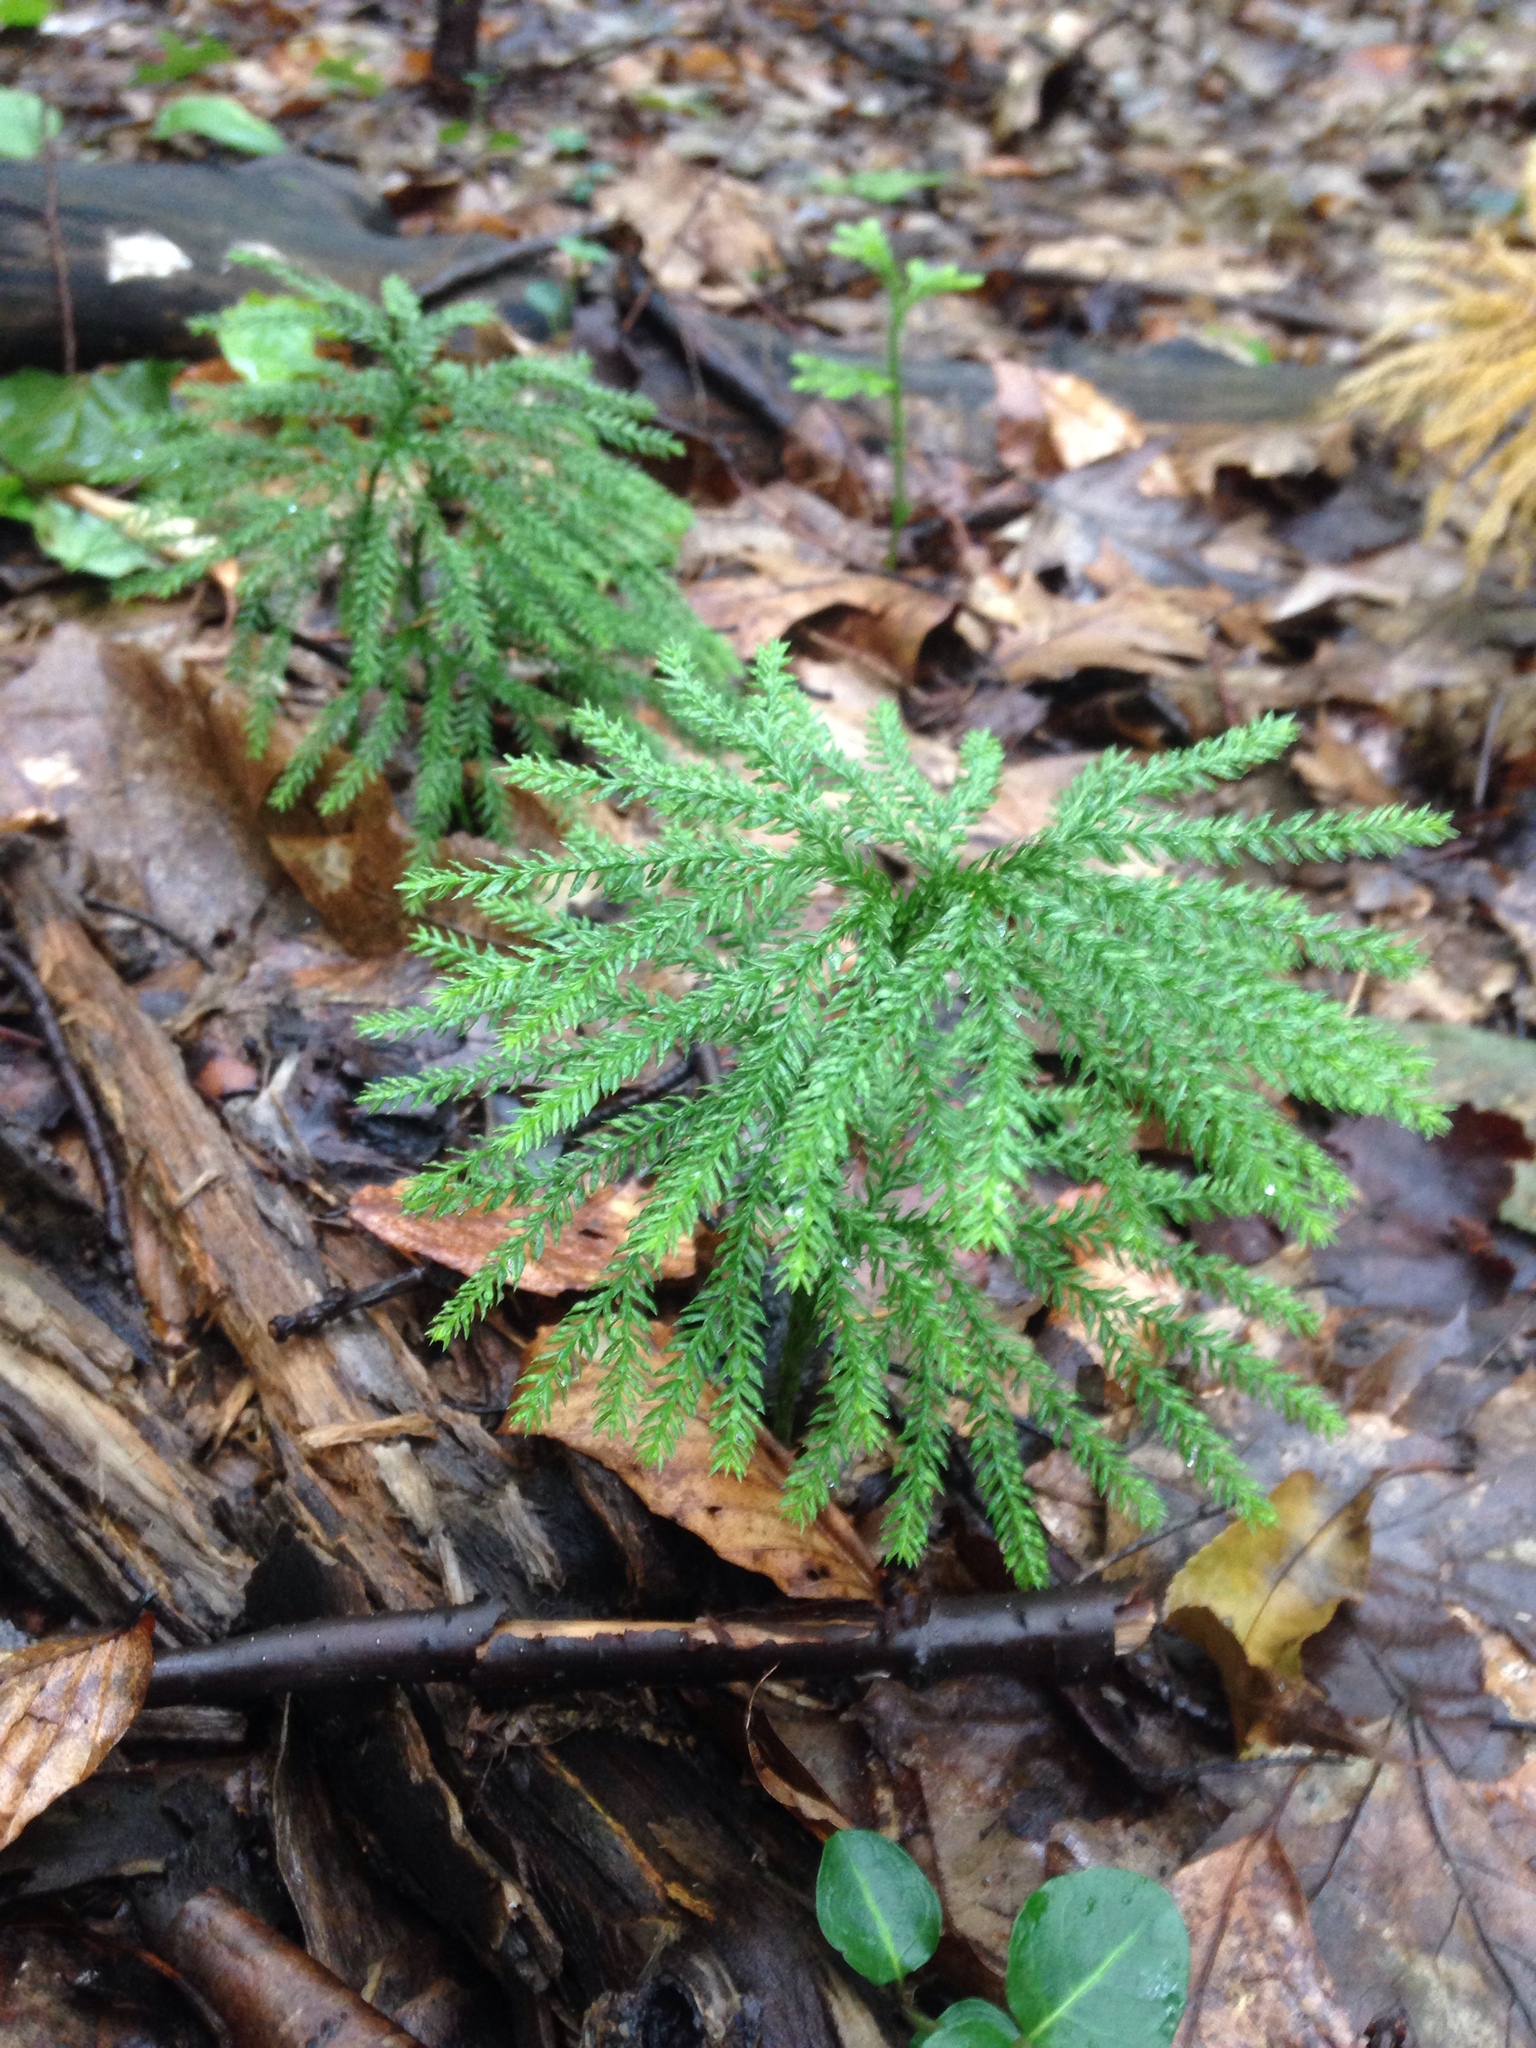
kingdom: Plantae
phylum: Tracheophyta
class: Lycopodiopsida
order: Lycopodiales
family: Lycopodiaceae
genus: Dendrolycopodium
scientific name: Dendrolycopodium obscurum
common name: Common ground-pine
